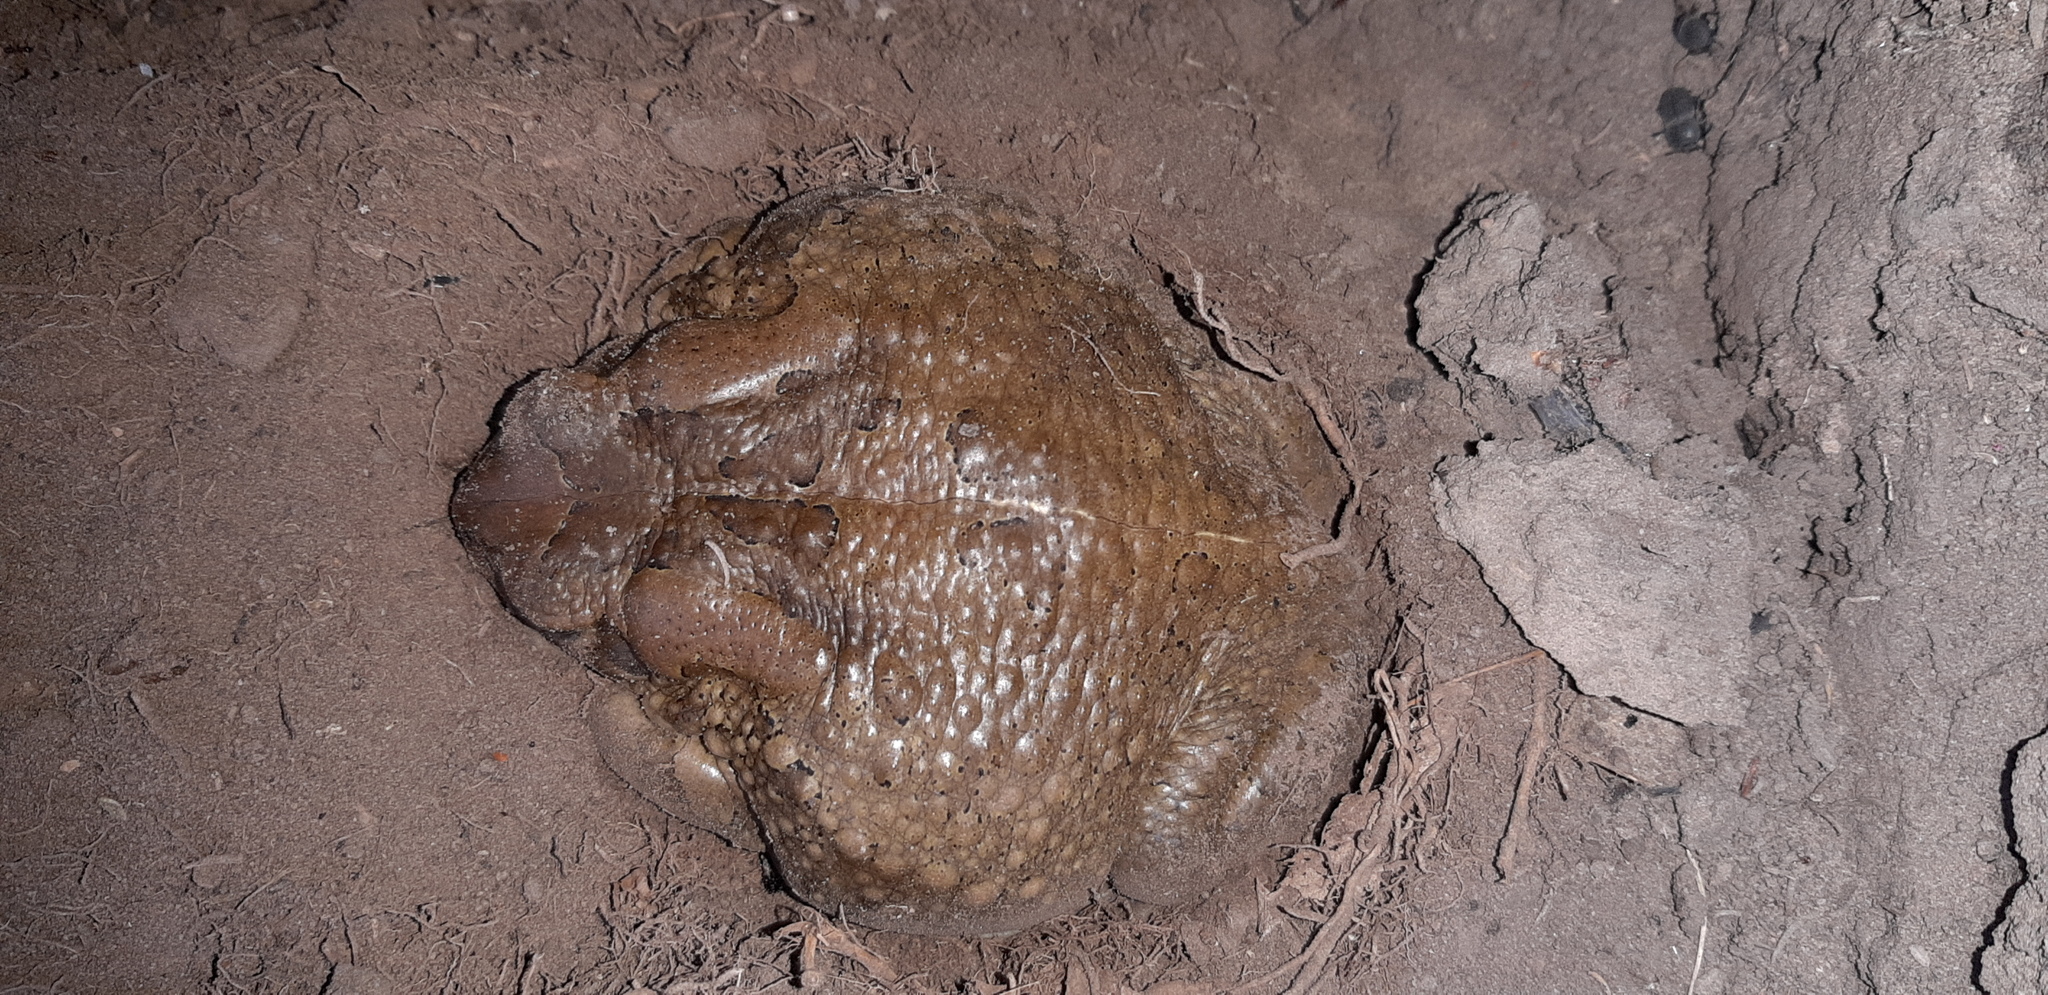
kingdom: Animalia
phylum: Chordata
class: Amphibia
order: Anura
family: Bufonidae
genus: Sclerophrys
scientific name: Sclerophrys capensis
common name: Ranger’s toad
